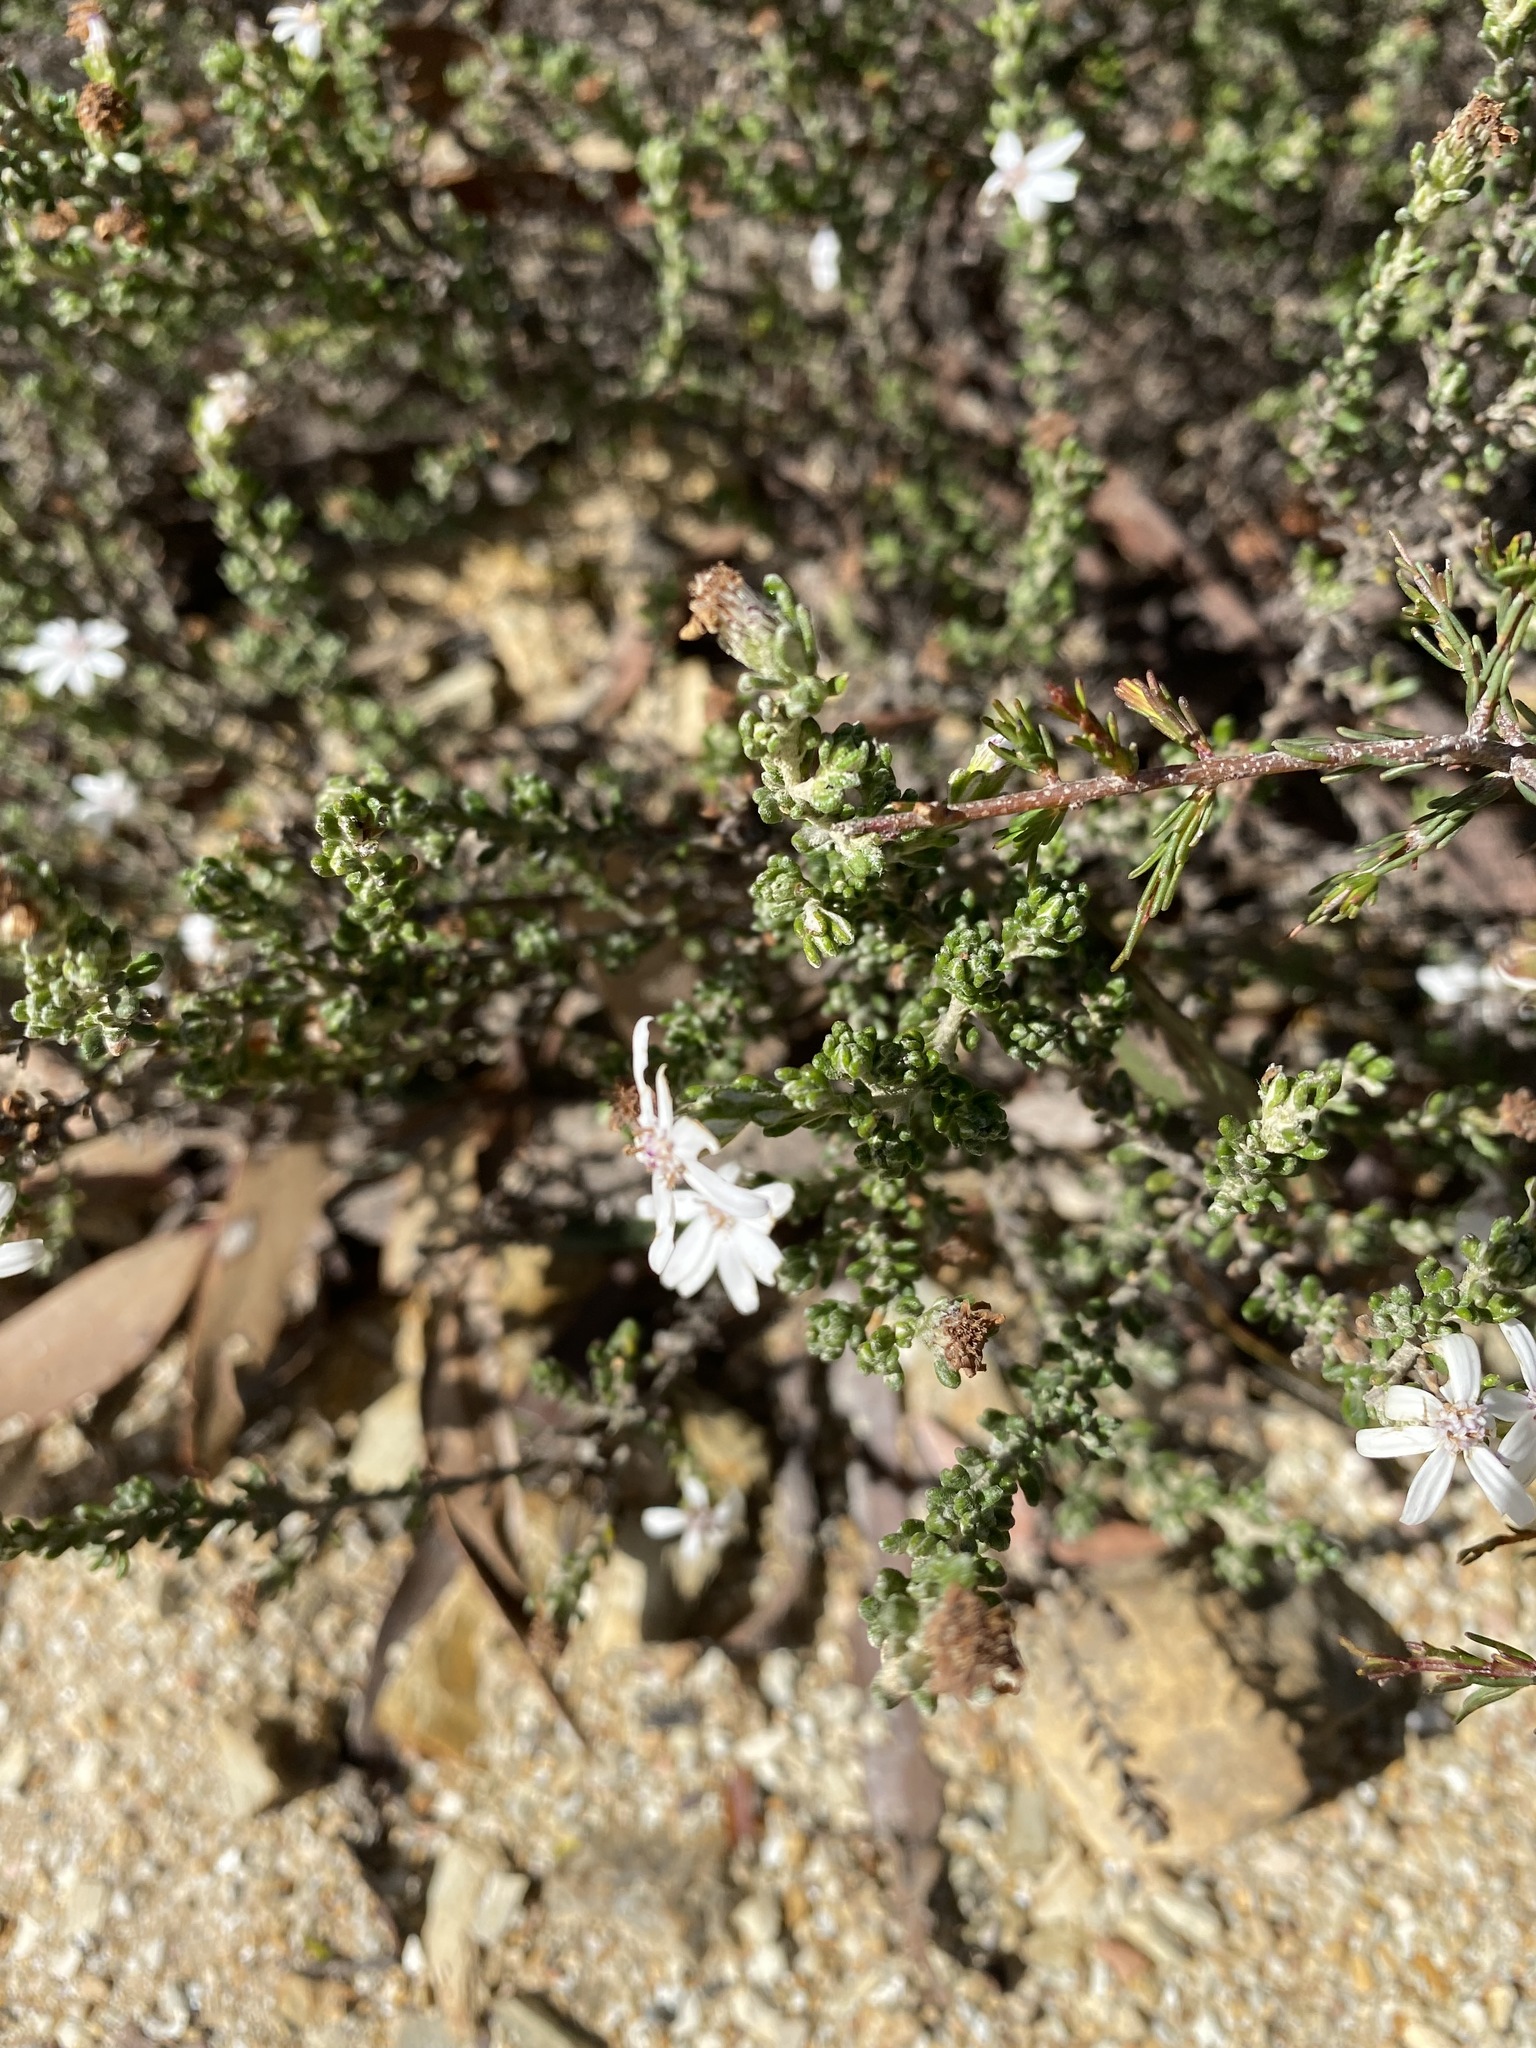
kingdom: Plantae
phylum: Tracheophyta
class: Magnoliopsida
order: Asterales
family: Asteraceae
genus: Olearia
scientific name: Olearia minor
